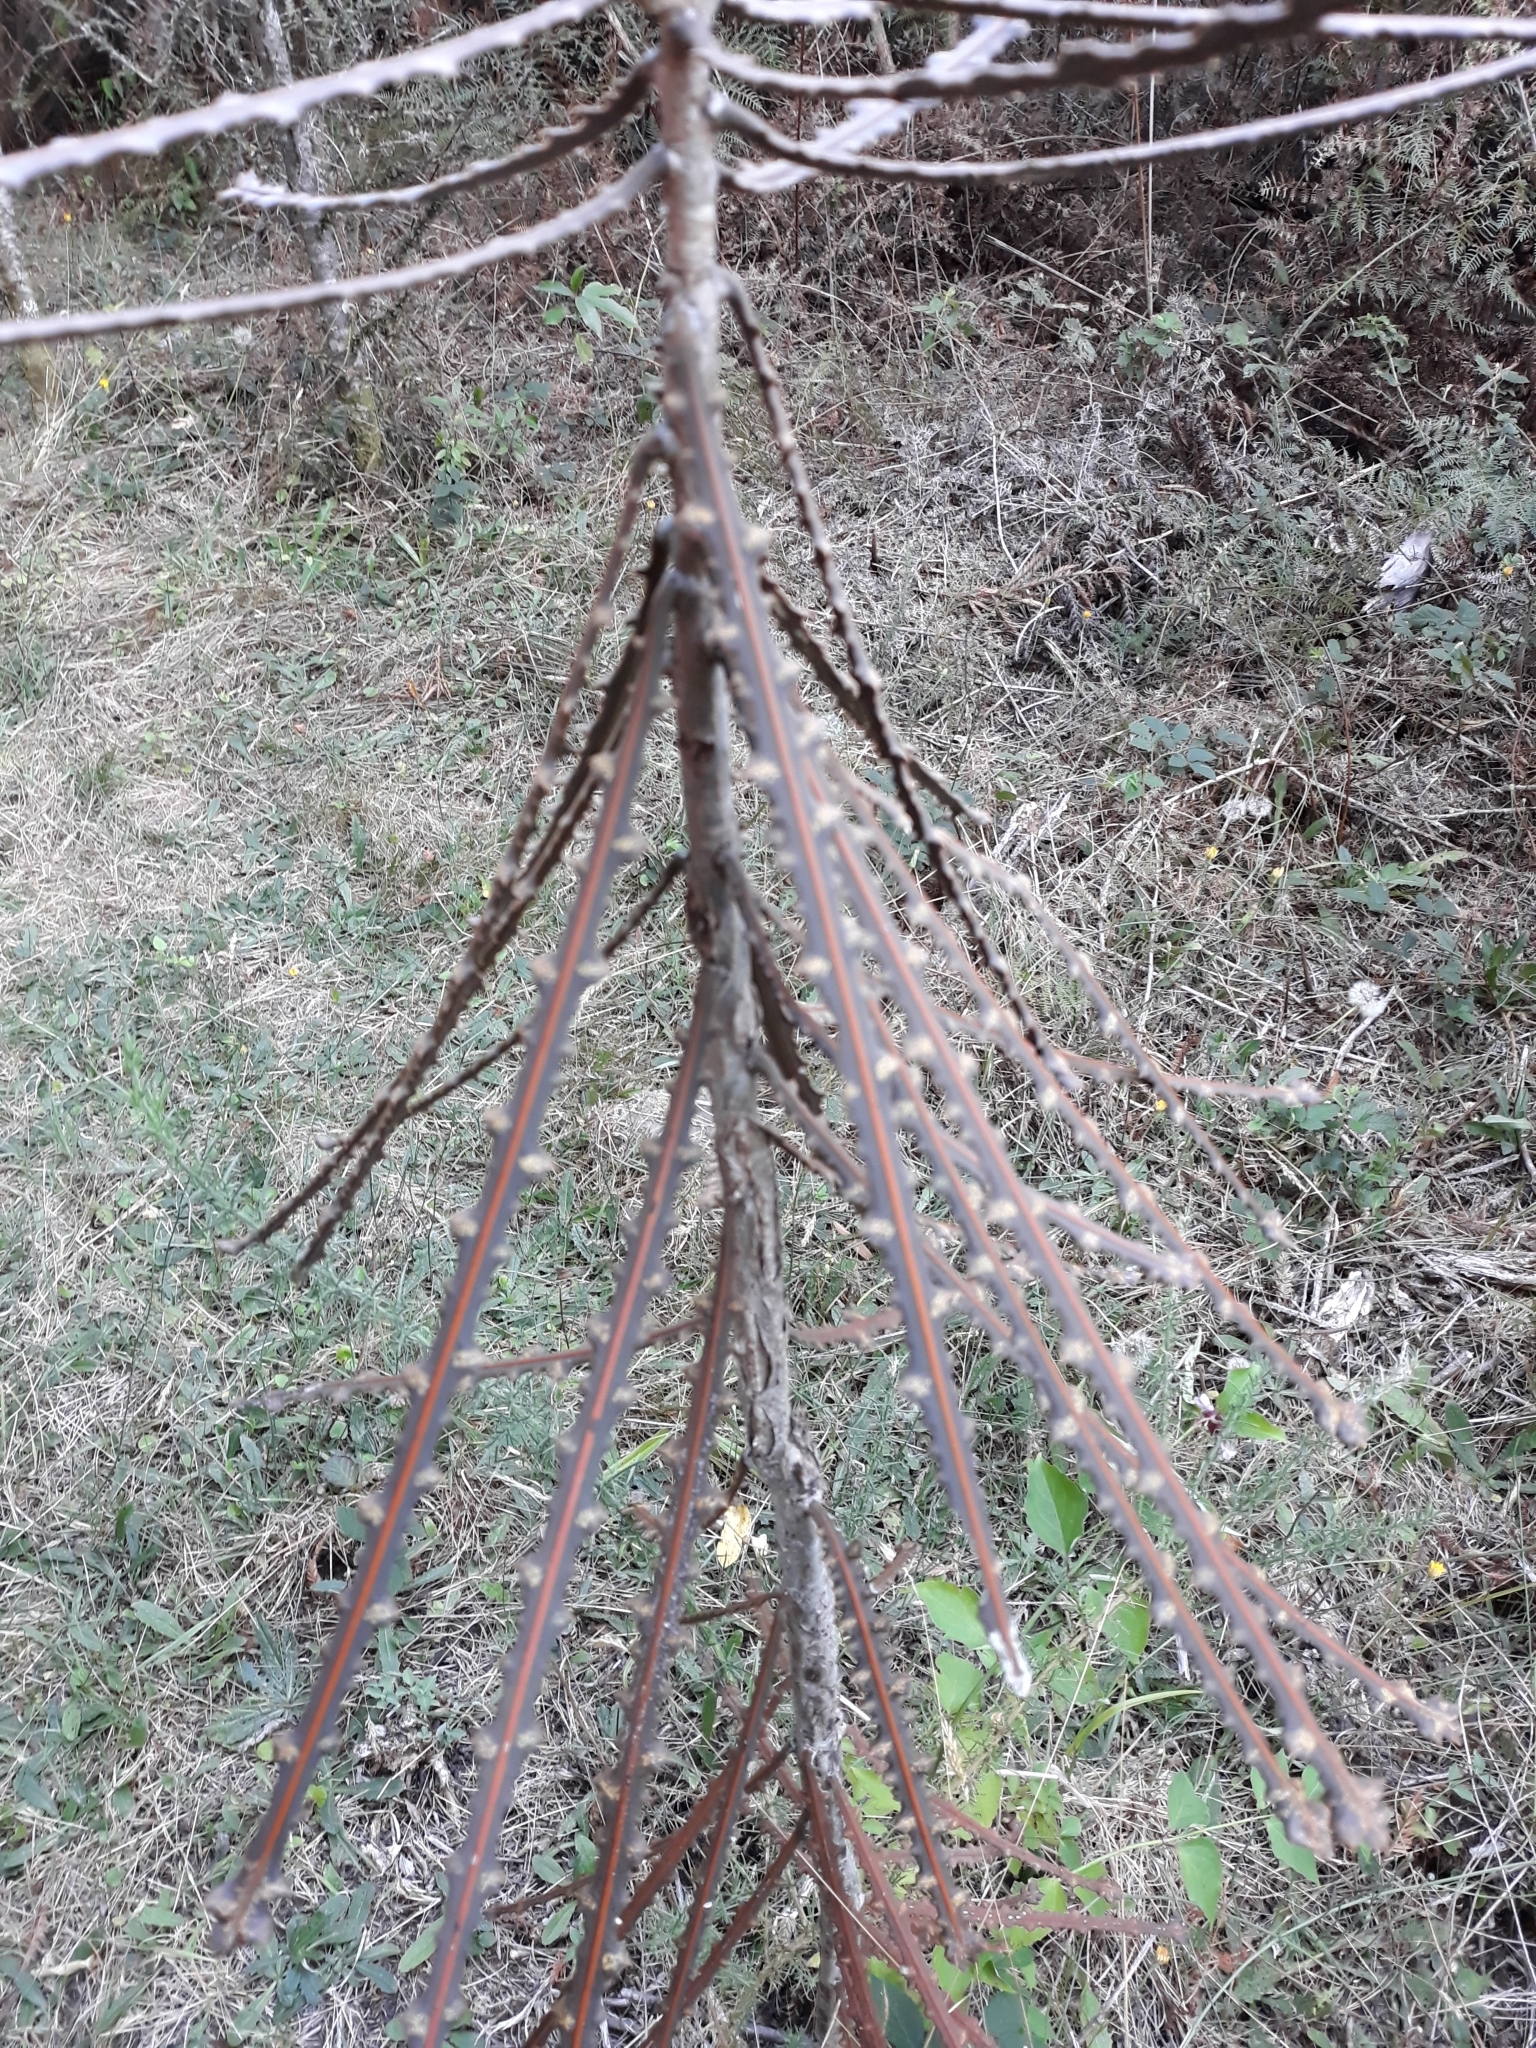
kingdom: Plantae
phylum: Tracheophyta
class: Magnoliopsida
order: Apiales
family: Araliaceae
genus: Pseudopanax
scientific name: Pseudopanax ferox
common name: Fierce lancewood
